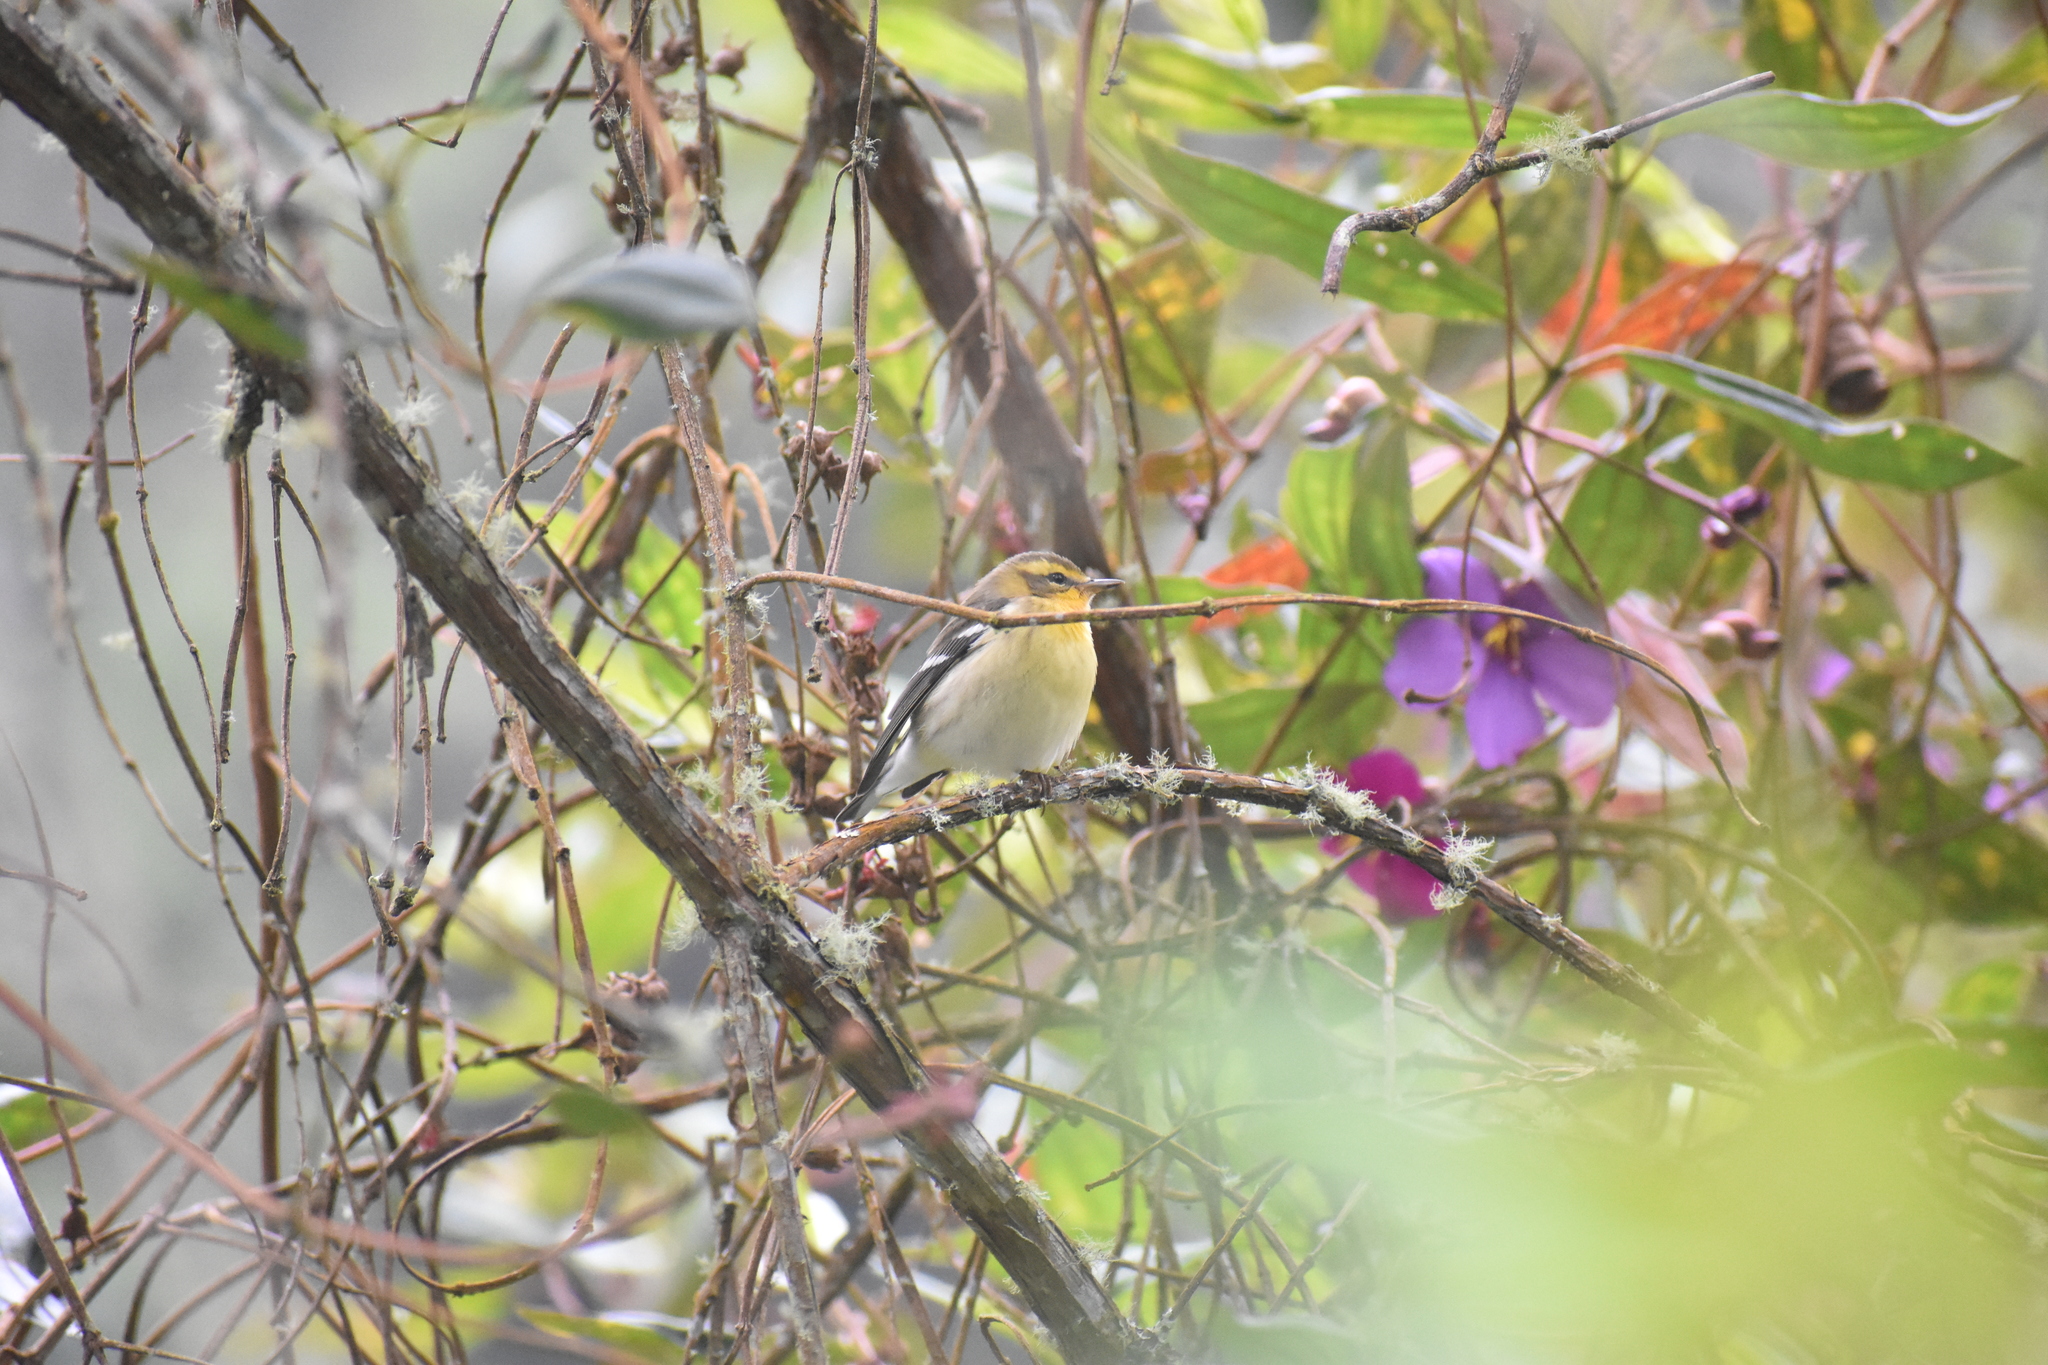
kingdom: Animalia
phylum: Chordata
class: Aves
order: Passeriformes
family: Parulidae
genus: Setophaga
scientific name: Setophaga fusca
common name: Blackburnian warbler
